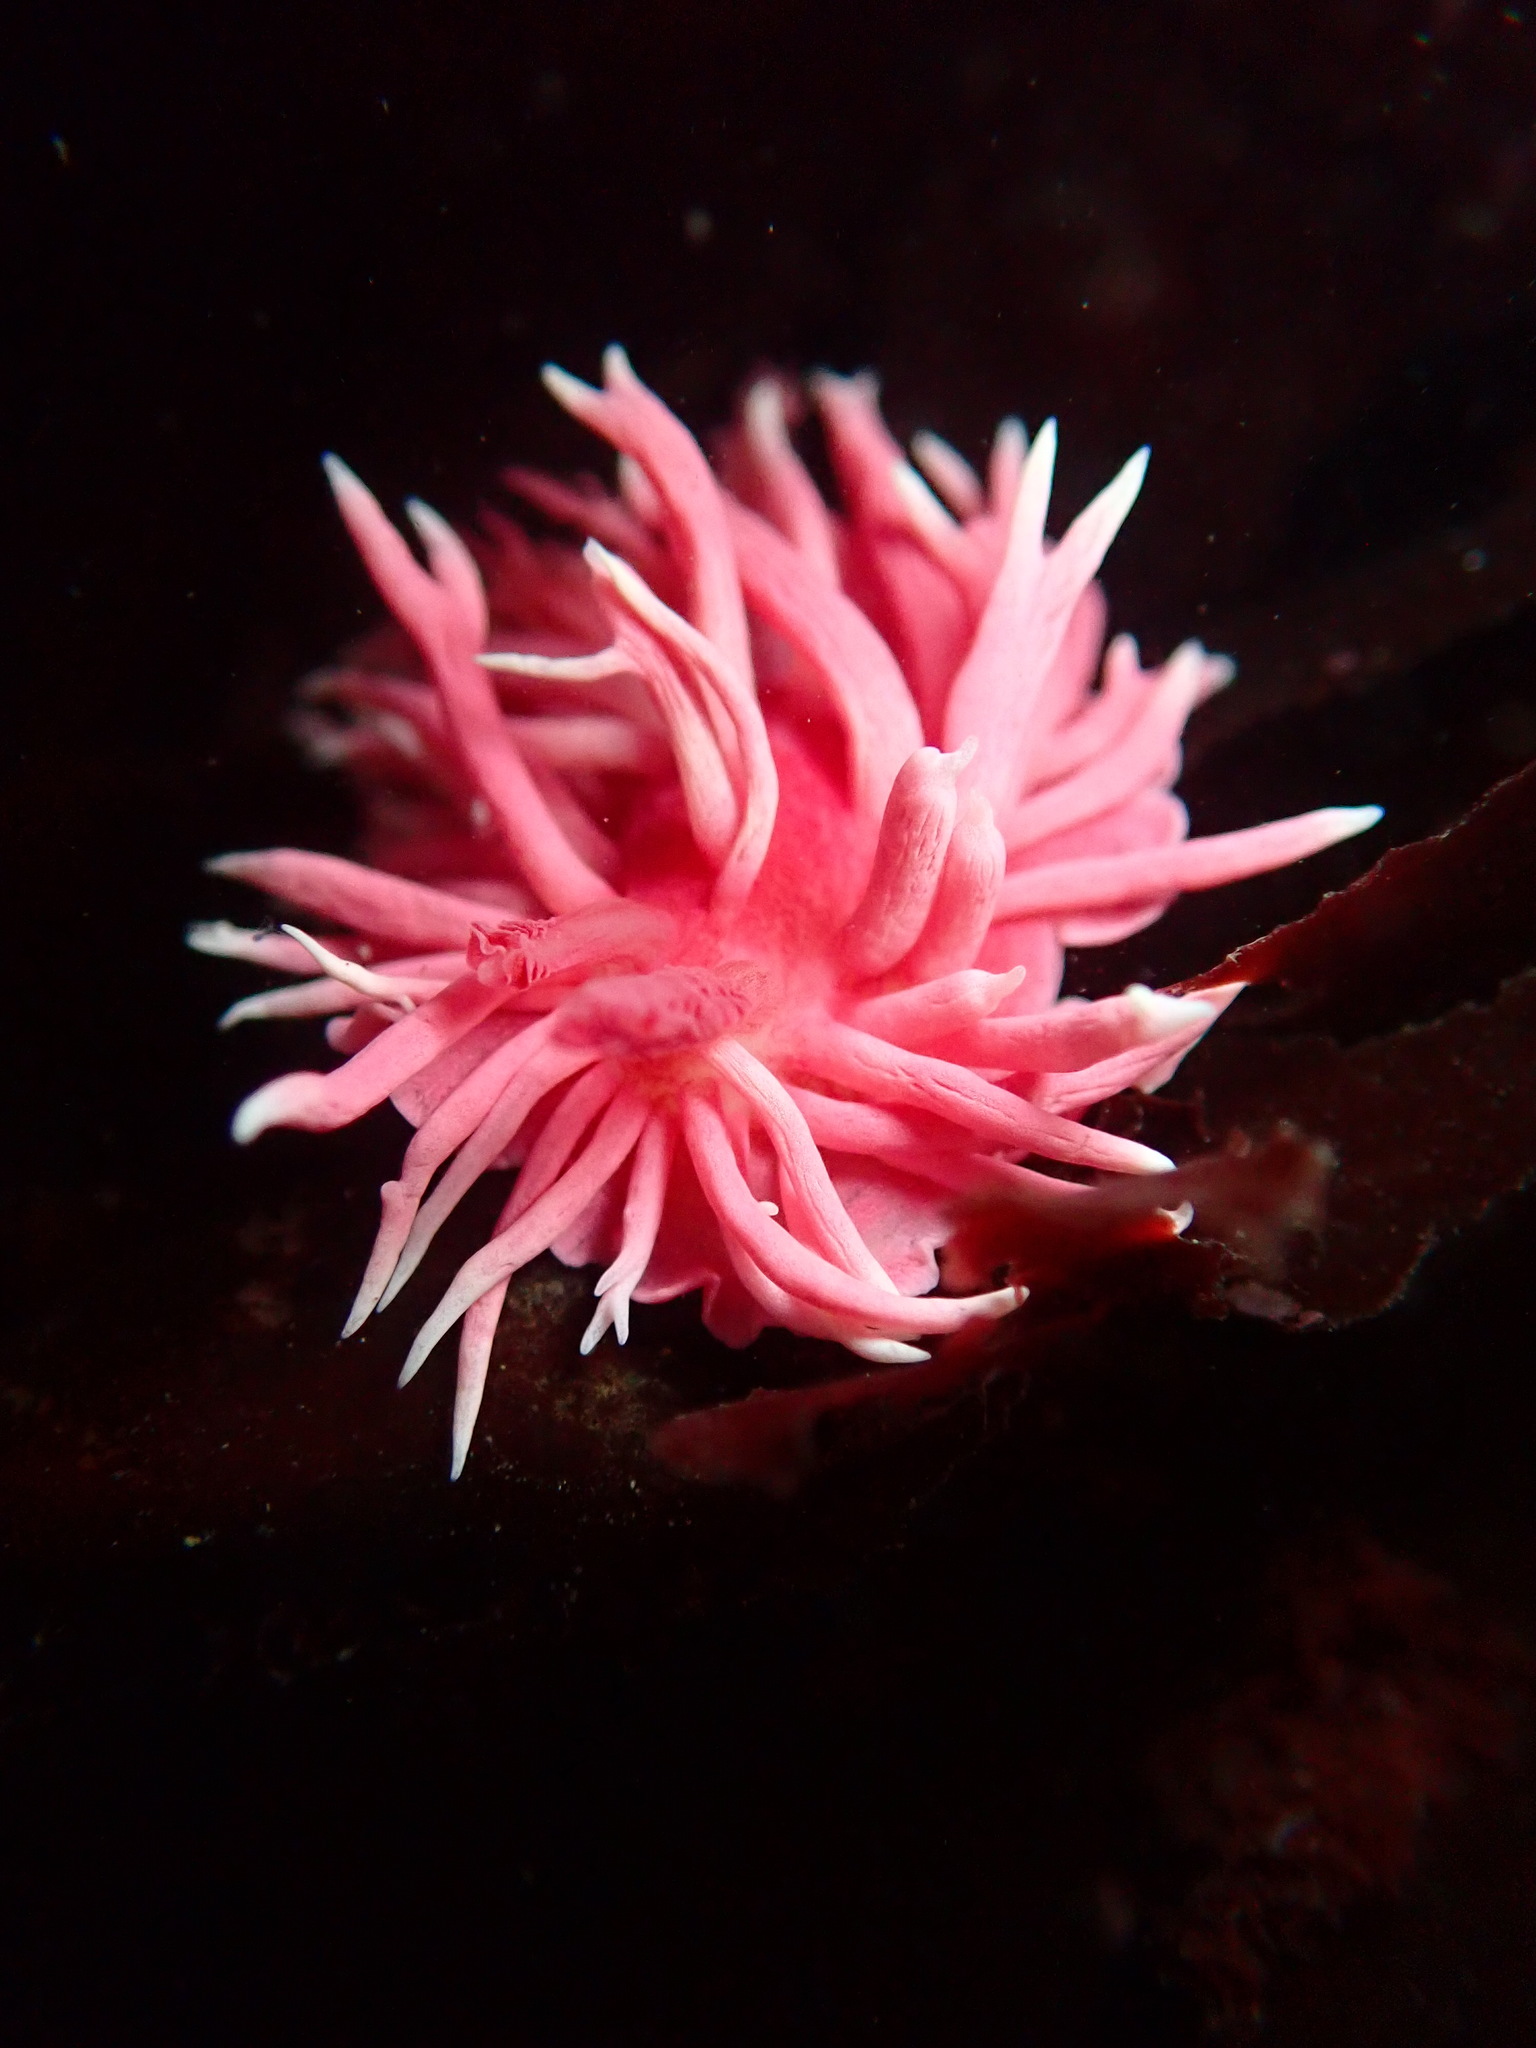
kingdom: Animalia
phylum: Mollusca
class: Gastropoda
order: Nudibranchia
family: Goniodorididae
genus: Okenia
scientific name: Okenia
